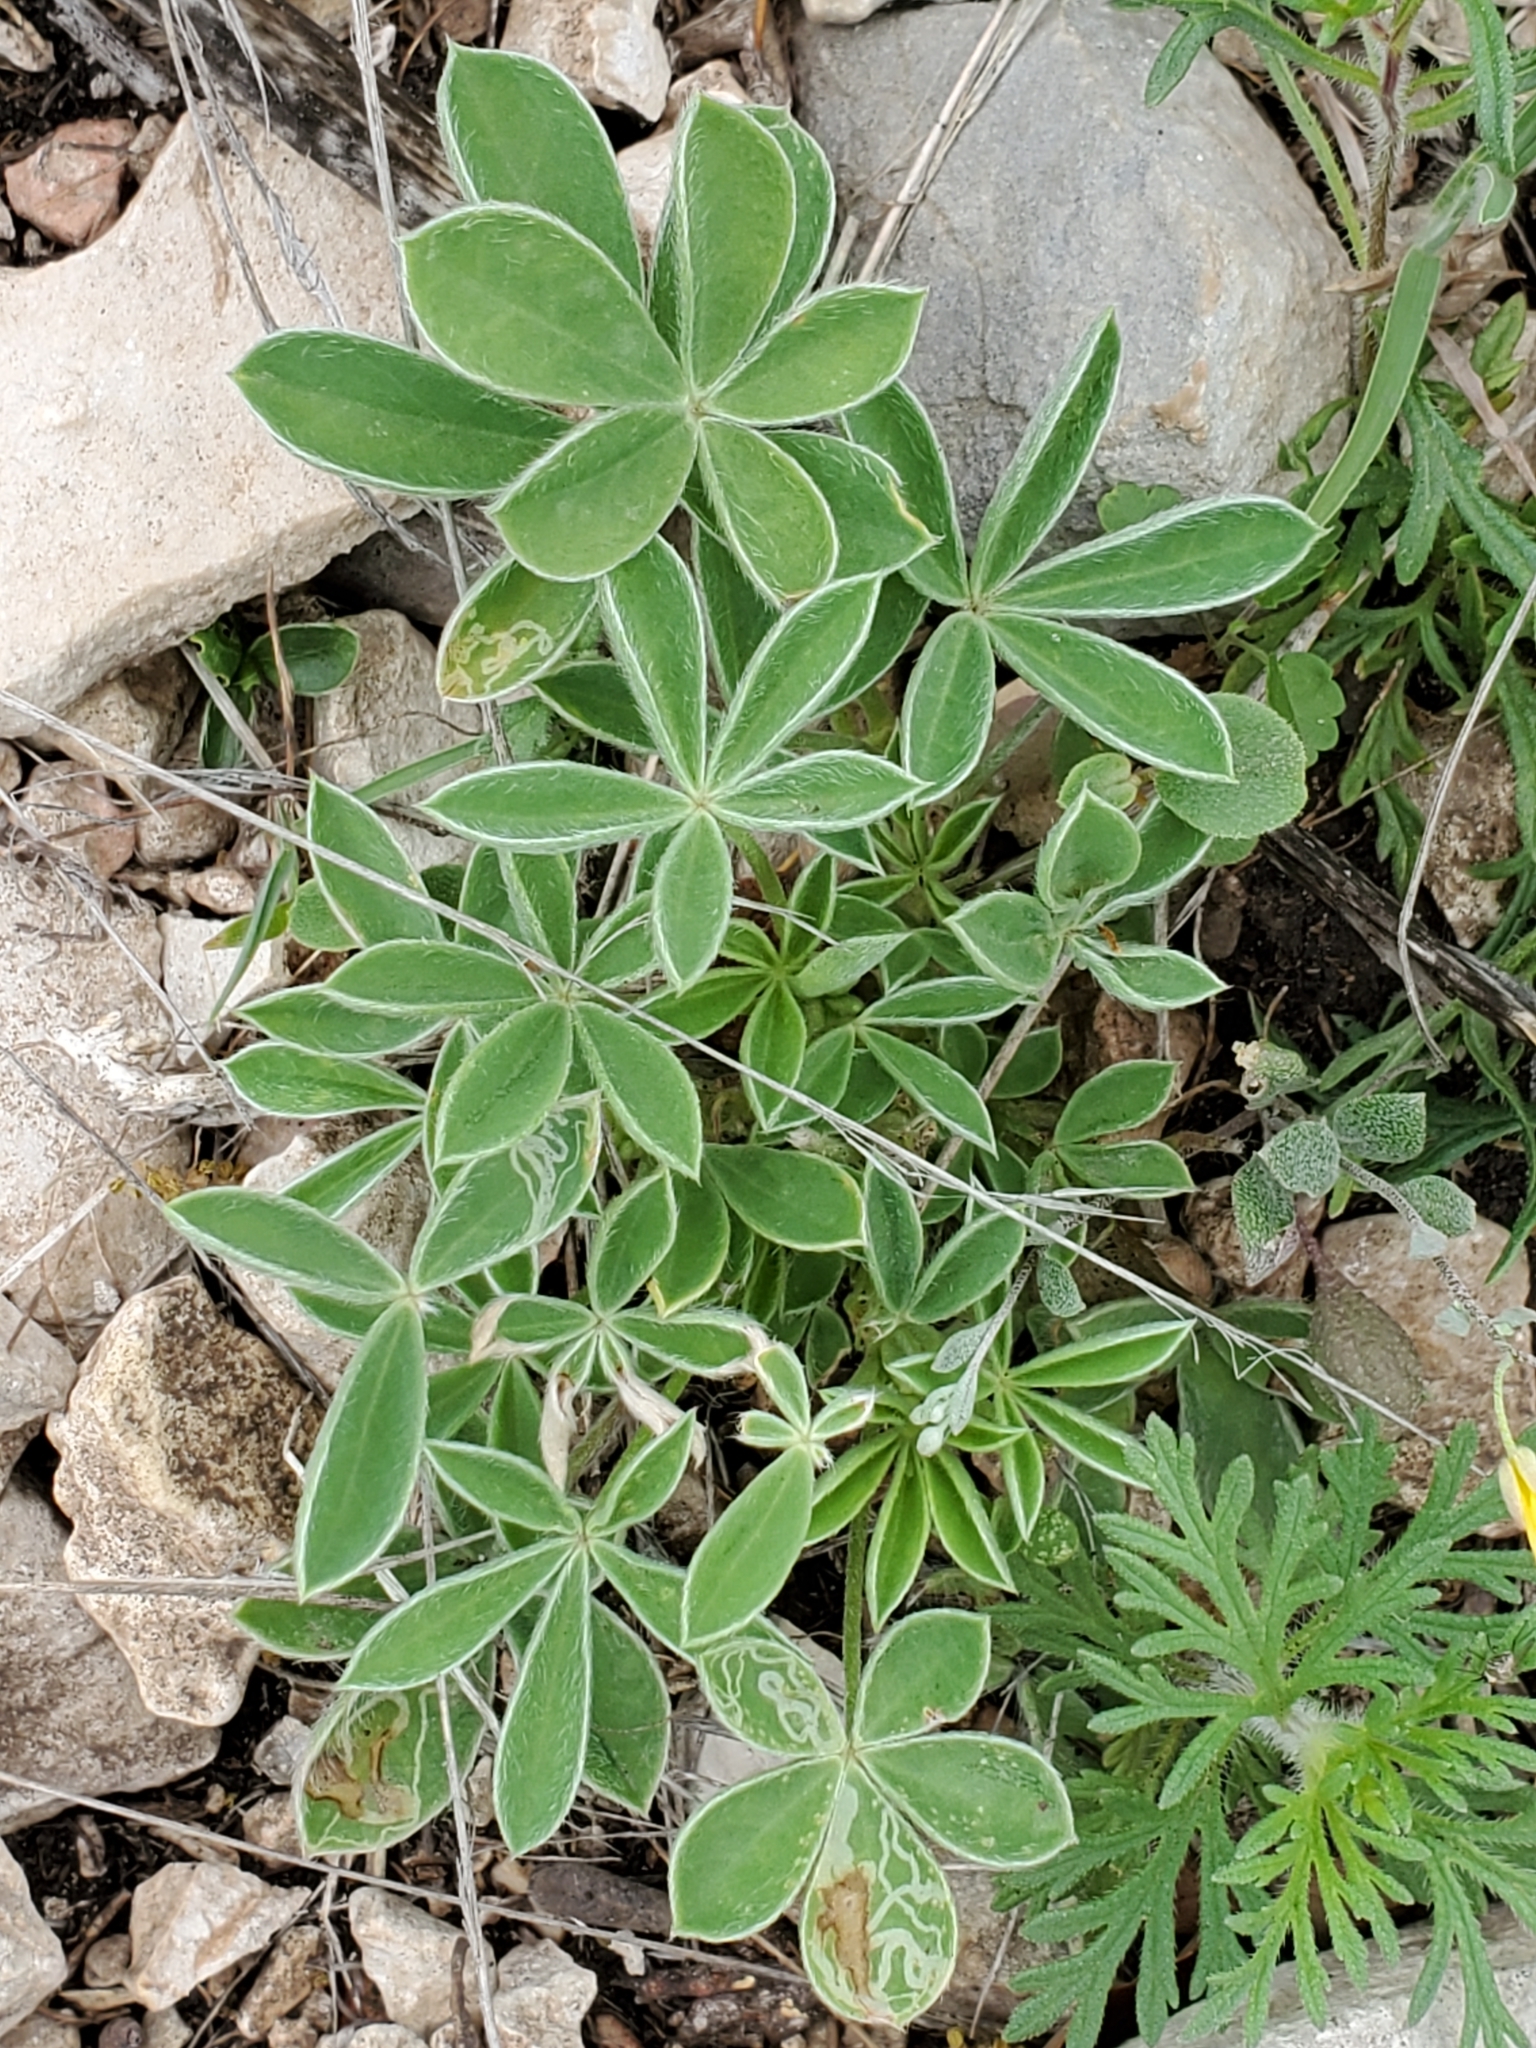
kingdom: Plantae
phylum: Tracheophyta
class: Magnoliopsida
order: Fabales
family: Fabaceae
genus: Lupinus
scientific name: Lupinus texensis
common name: Texas bluebonnet
